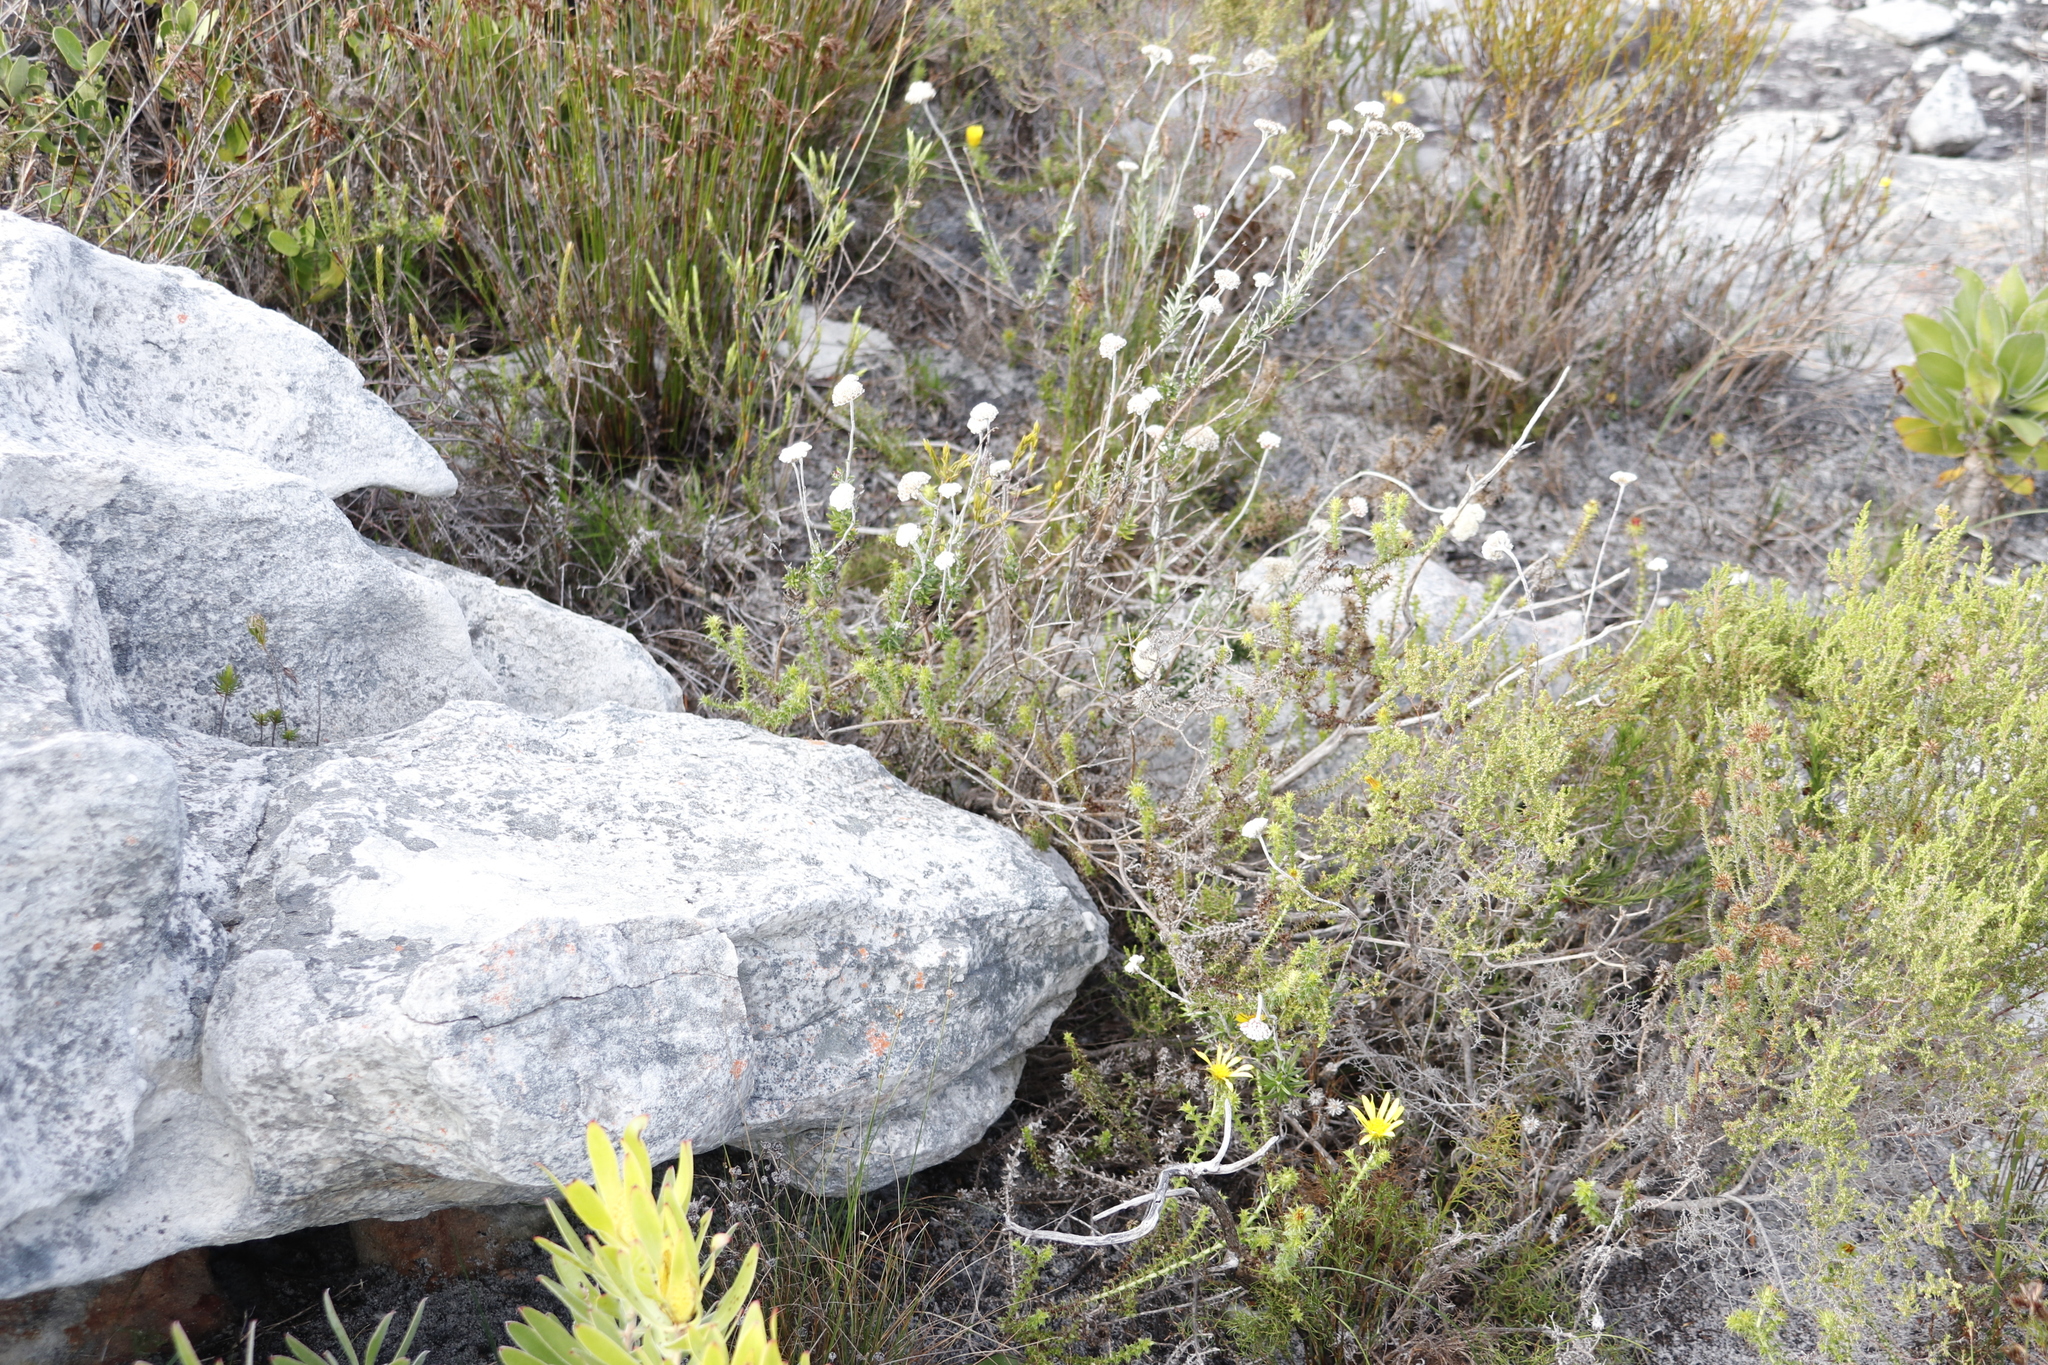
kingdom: Plantae
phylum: Tracheophyta
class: Magnoliopsida
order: Asterales
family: Asteraceae
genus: Anaxeton
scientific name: Anaxeton laeve
